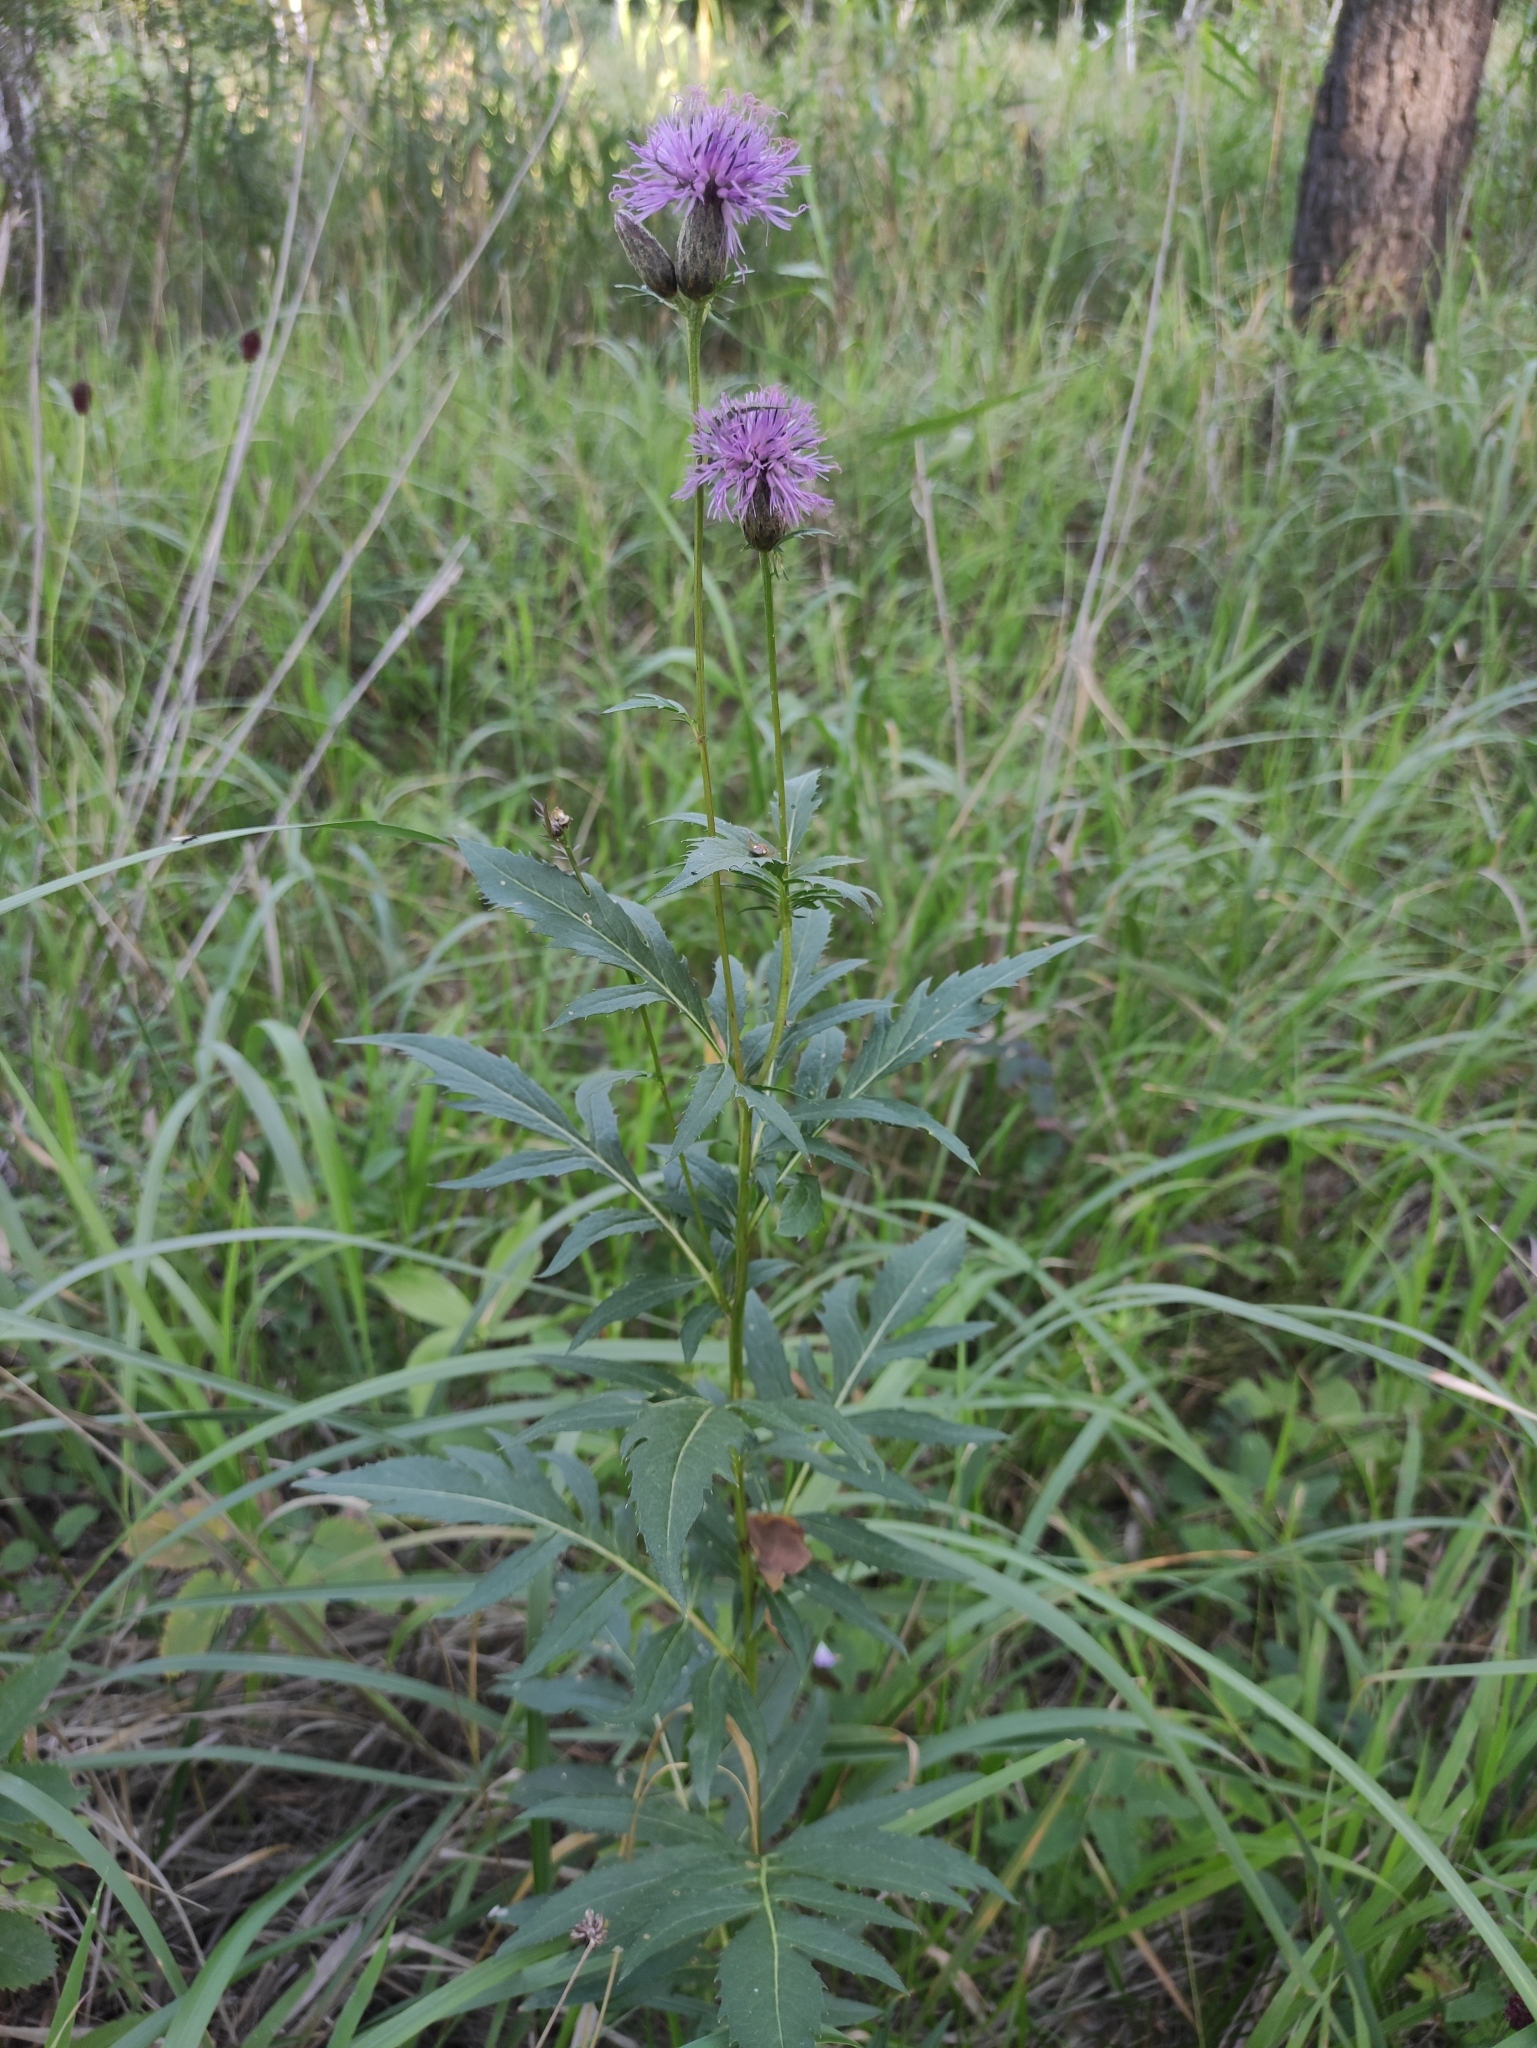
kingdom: Plantae
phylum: Tracheophyta
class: Magnoliopsida
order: Asterales
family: Asteraceae
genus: Serratula
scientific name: Serratula coronata
